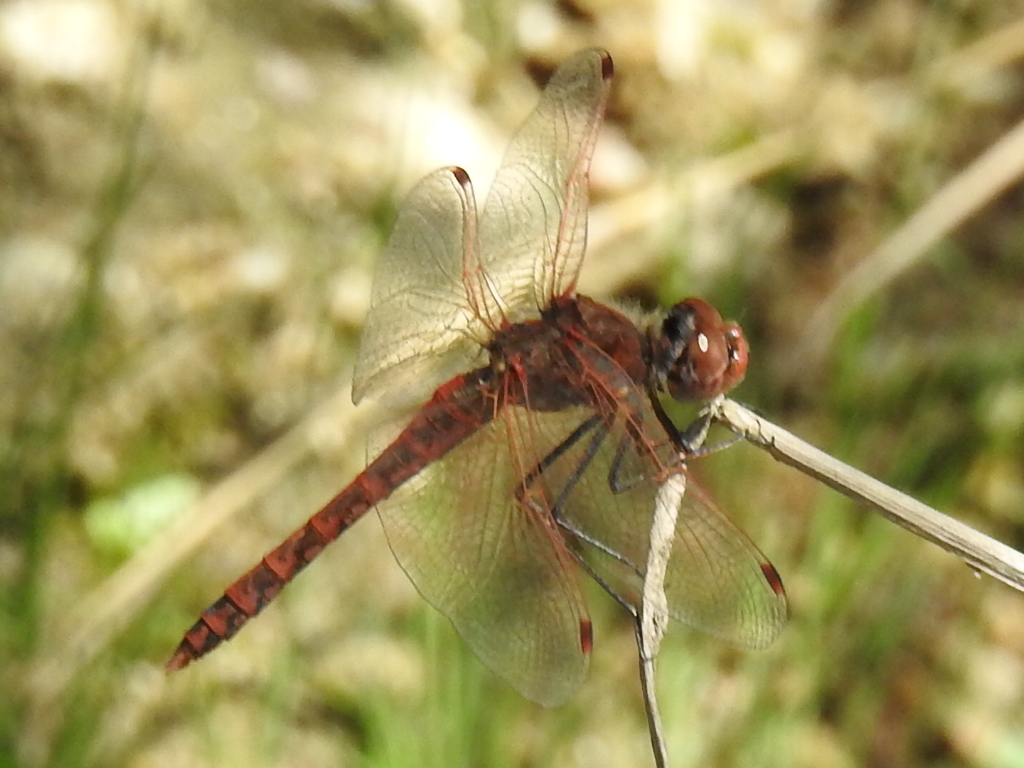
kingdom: Animalia
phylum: Arthropoda
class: Insecta
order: Odonata
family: Libellulidae
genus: Sympetrum
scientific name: Sympetrum corruptum
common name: Variegated meadowhawk
